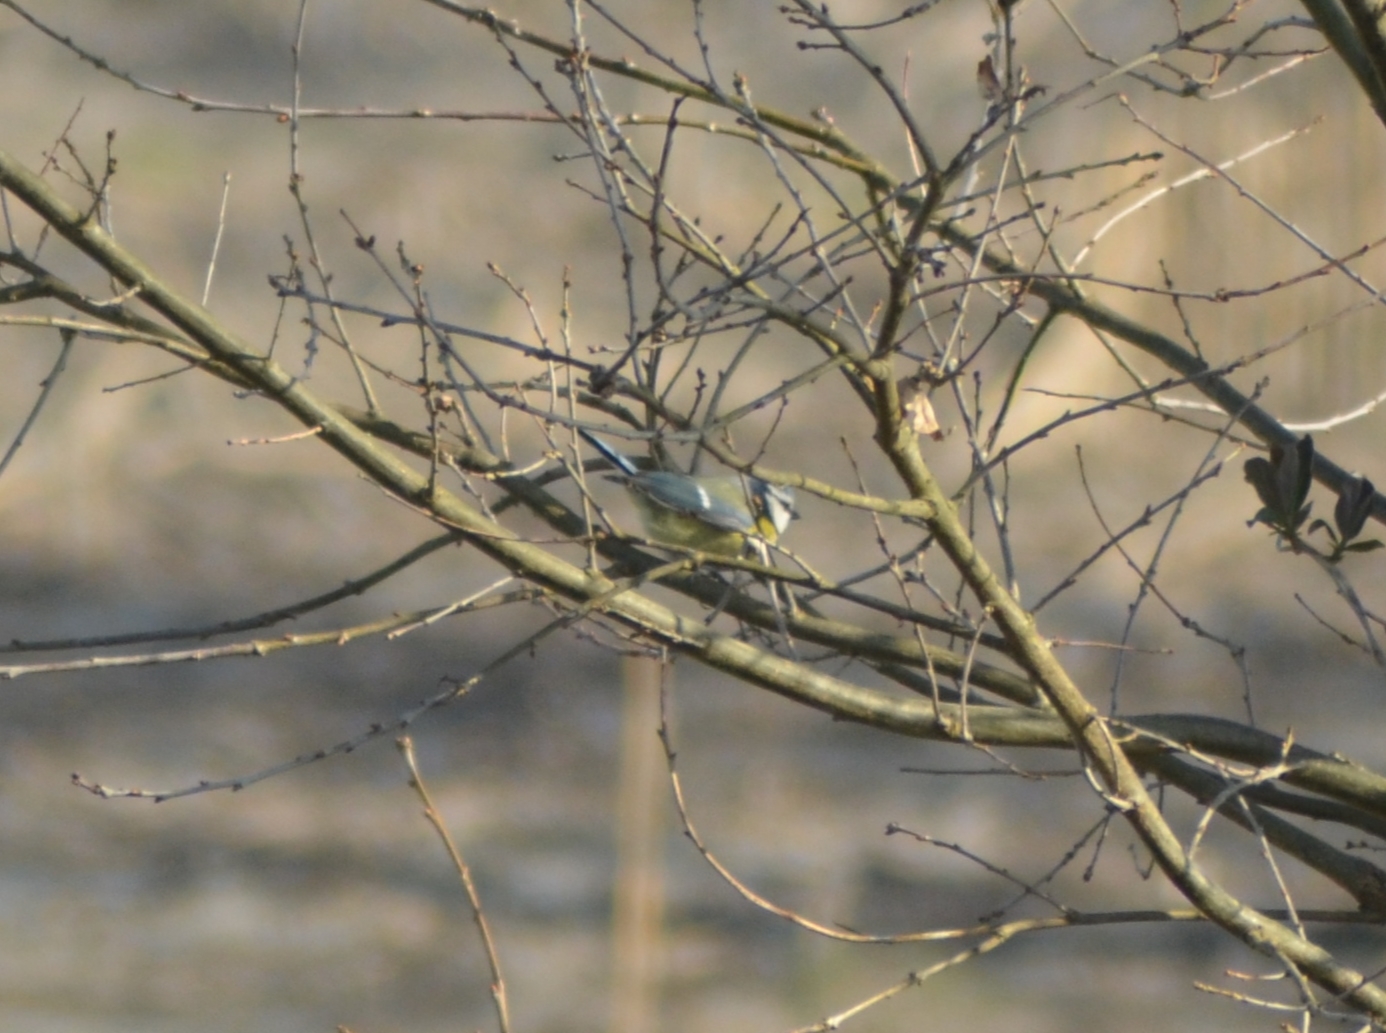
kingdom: Animalia
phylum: Chordata
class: Aves
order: Passeriformes
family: Paridae
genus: Cyanistes
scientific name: Cyanistes caeruleus
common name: Eurasian blue tit
